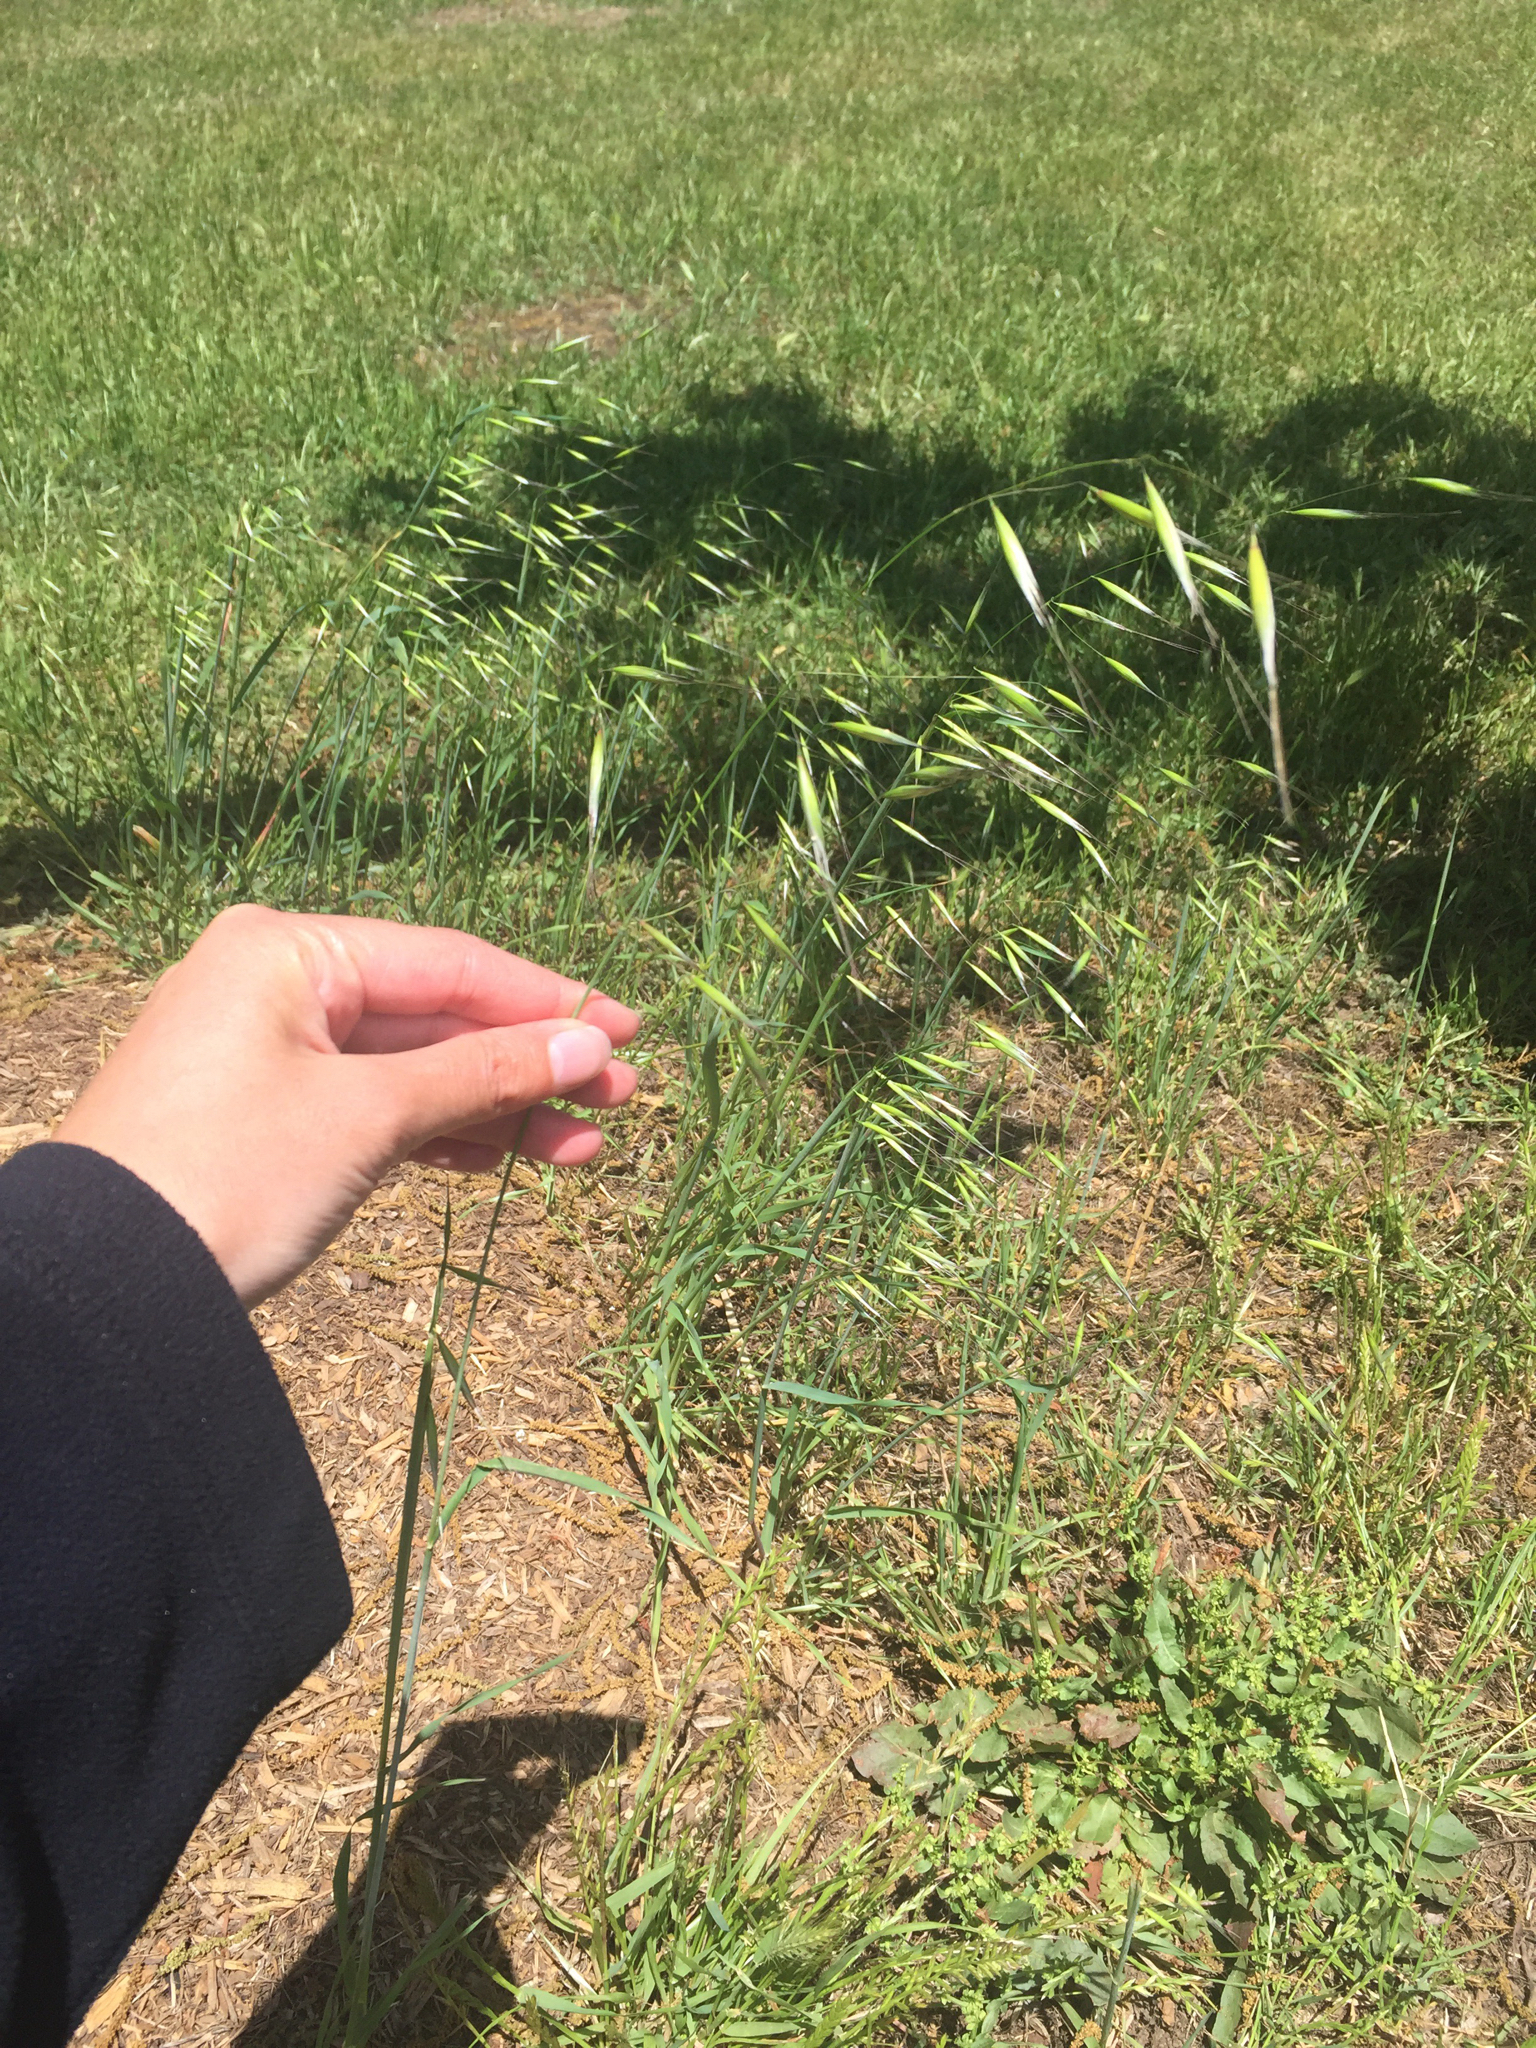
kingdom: Plantae
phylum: Tracheophyta
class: Liliopsida
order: Poales
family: Poaceae
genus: Avena
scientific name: Avena barbata
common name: Slender oat
